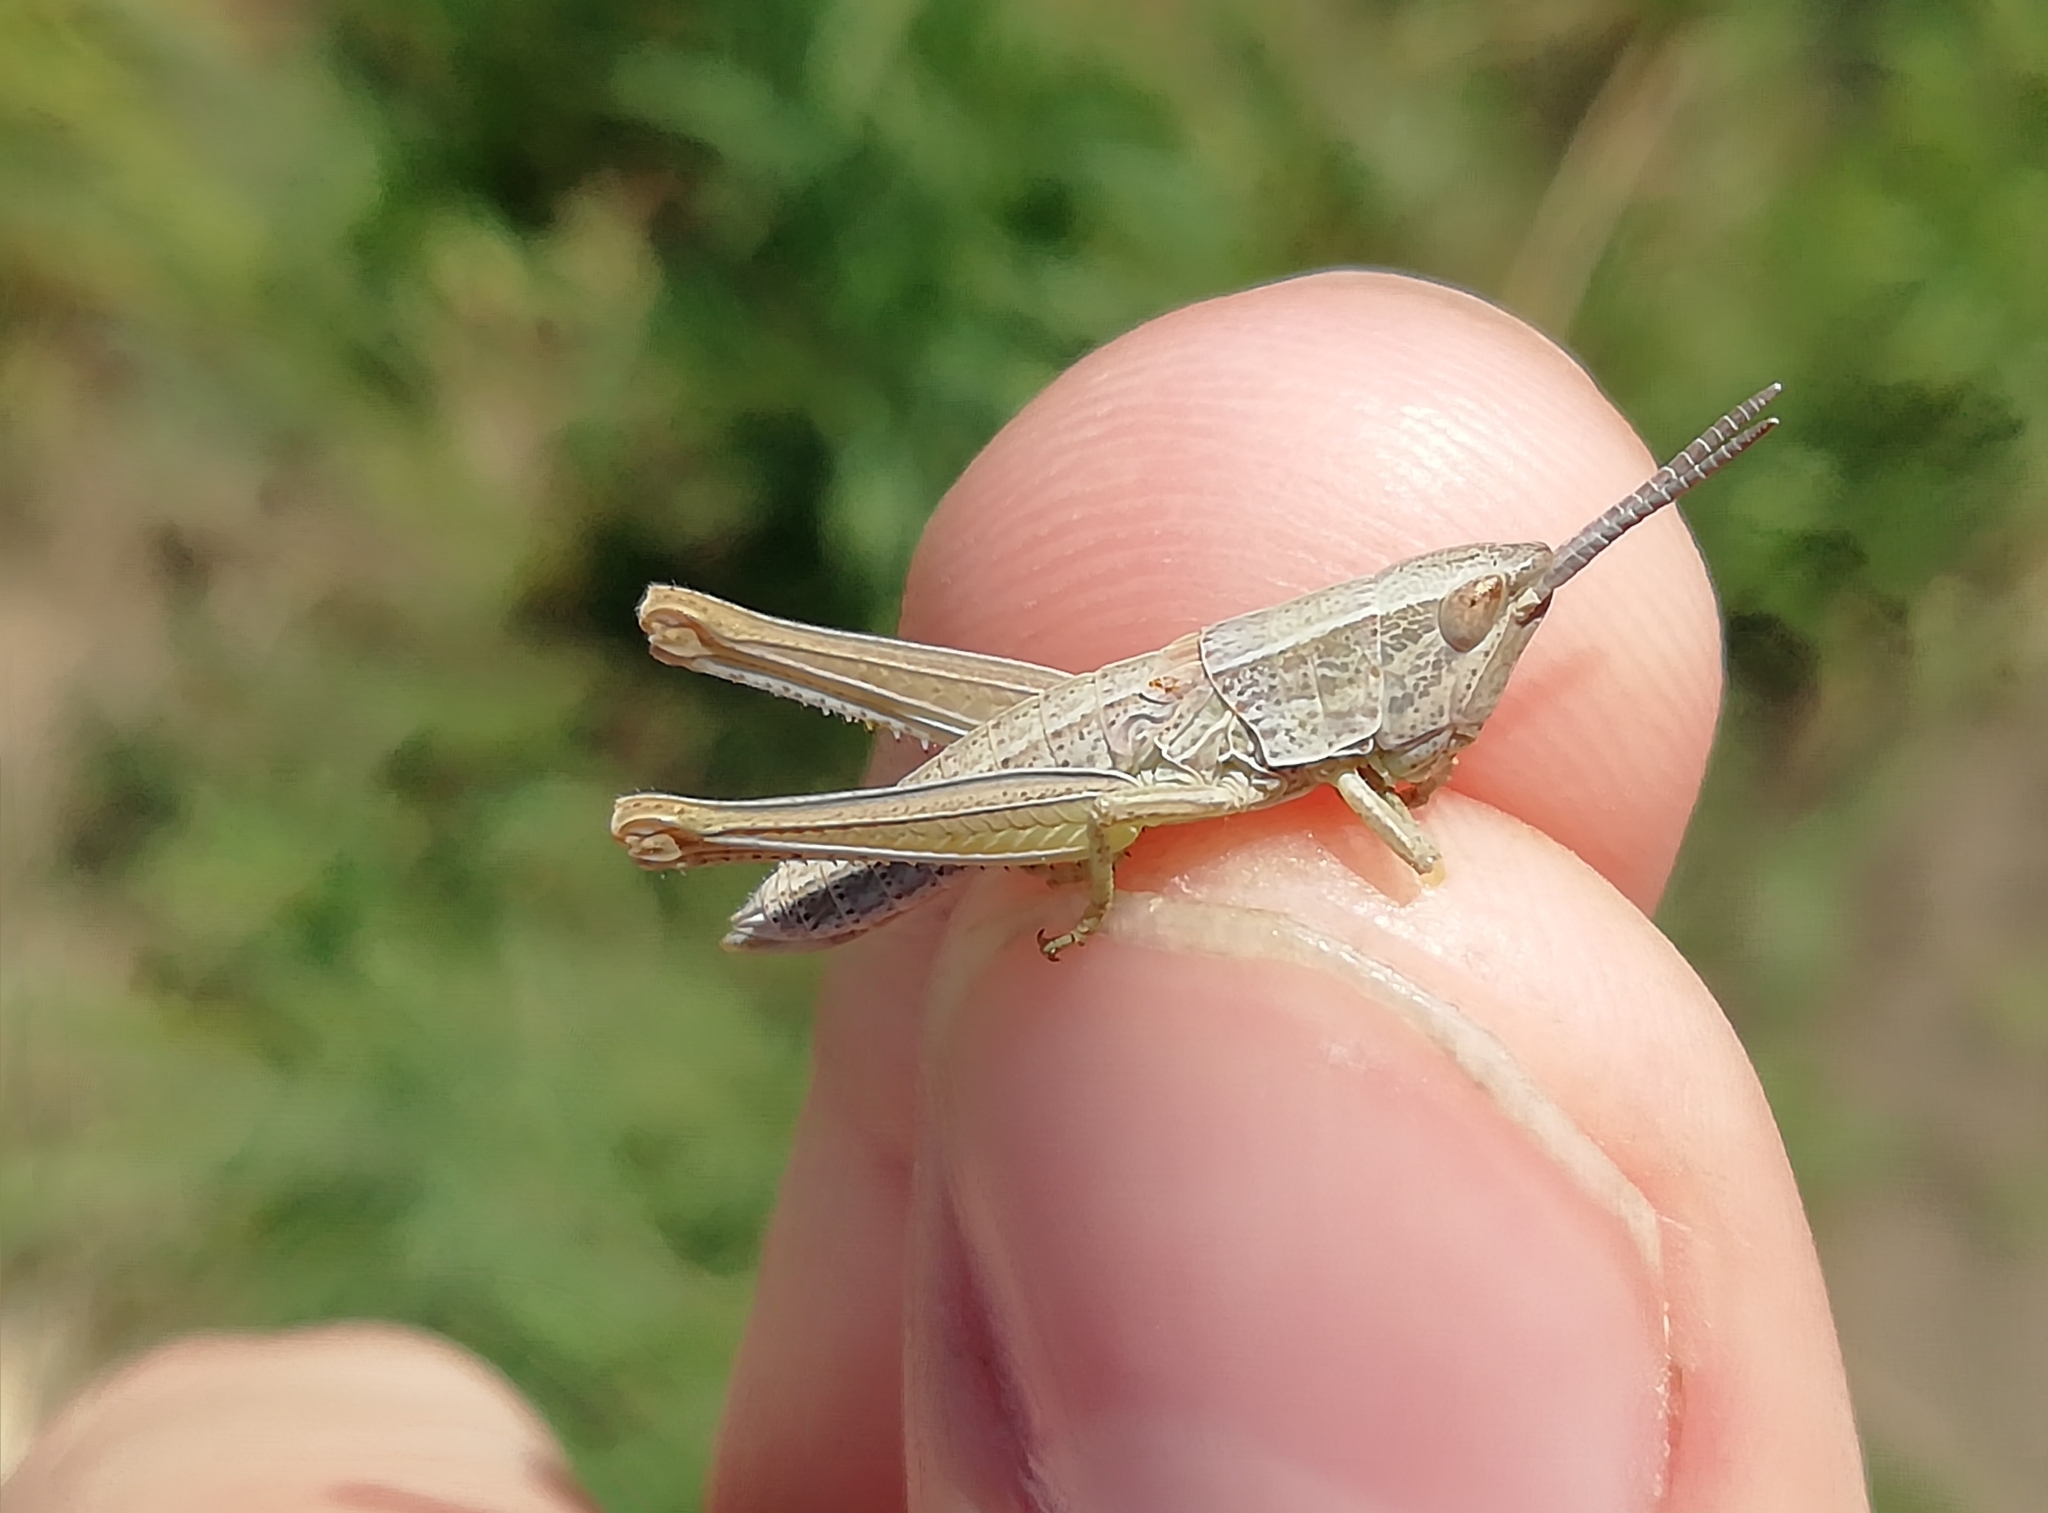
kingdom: Animalia
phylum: Arthropoda
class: Insecta
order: Orthoptera
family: Acrididae
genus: Chrysochraon
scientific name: Chrysochraon dispar
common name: Large gold grasshopper
